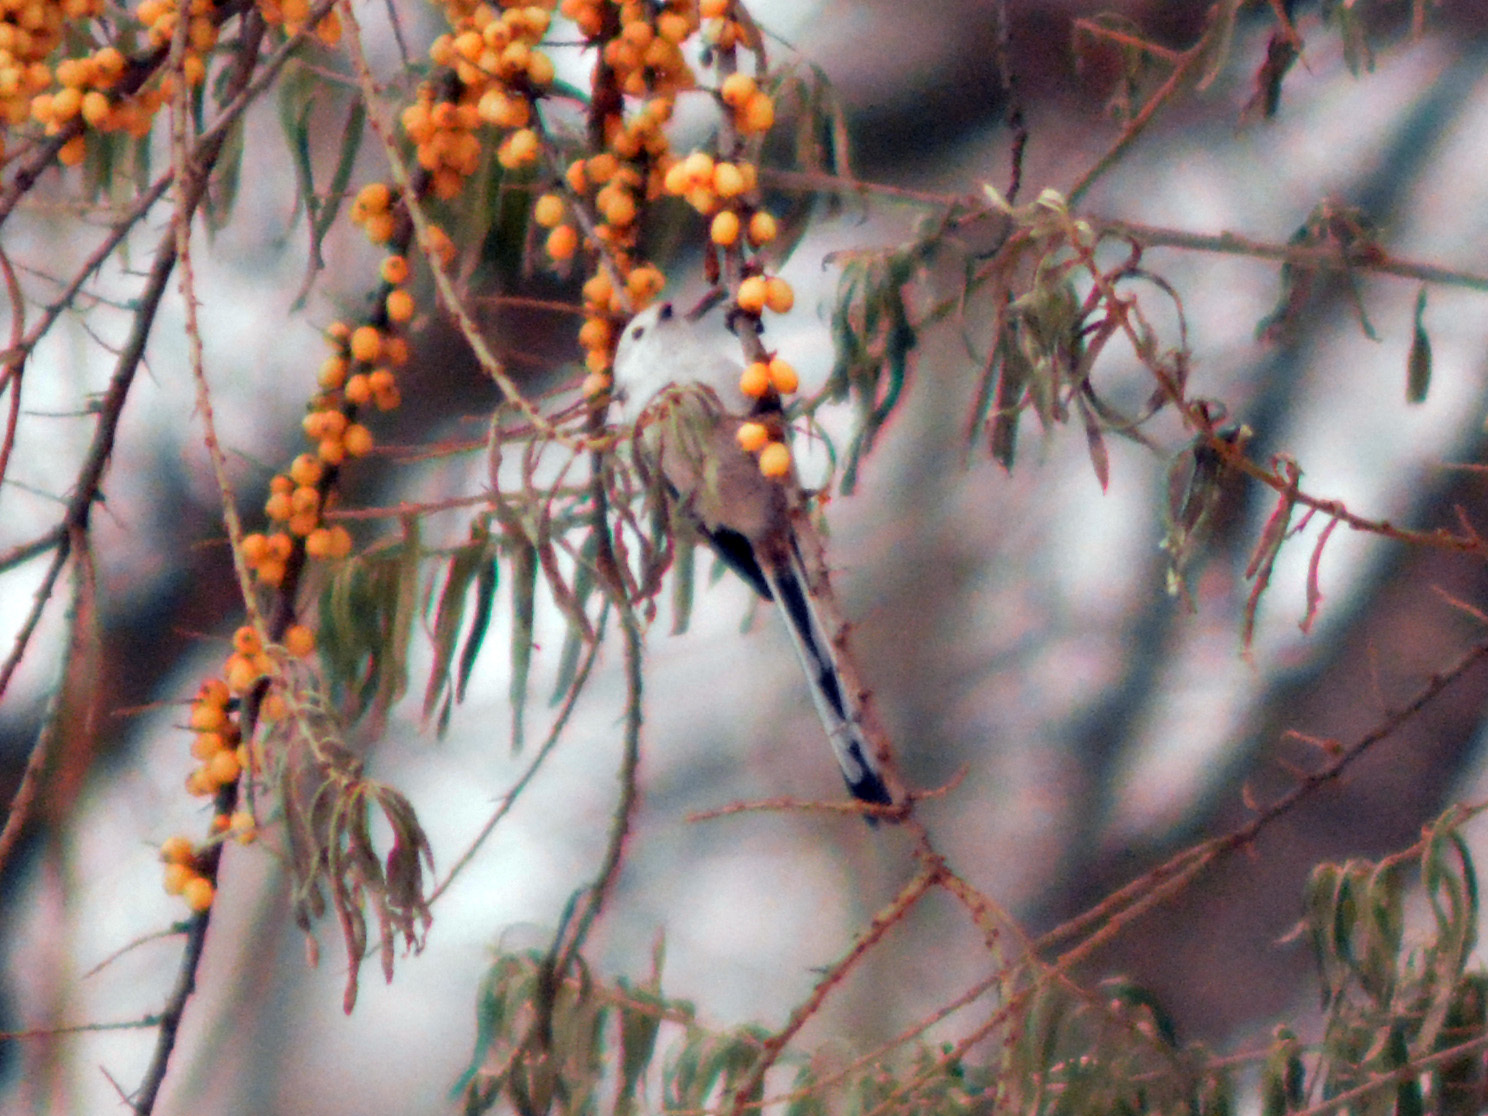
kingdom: Animalia
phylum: Chordata
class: Aves
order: Passeriformes
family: Aegithalidae
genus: Aegithalos
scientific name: Aegithalos caudatus
